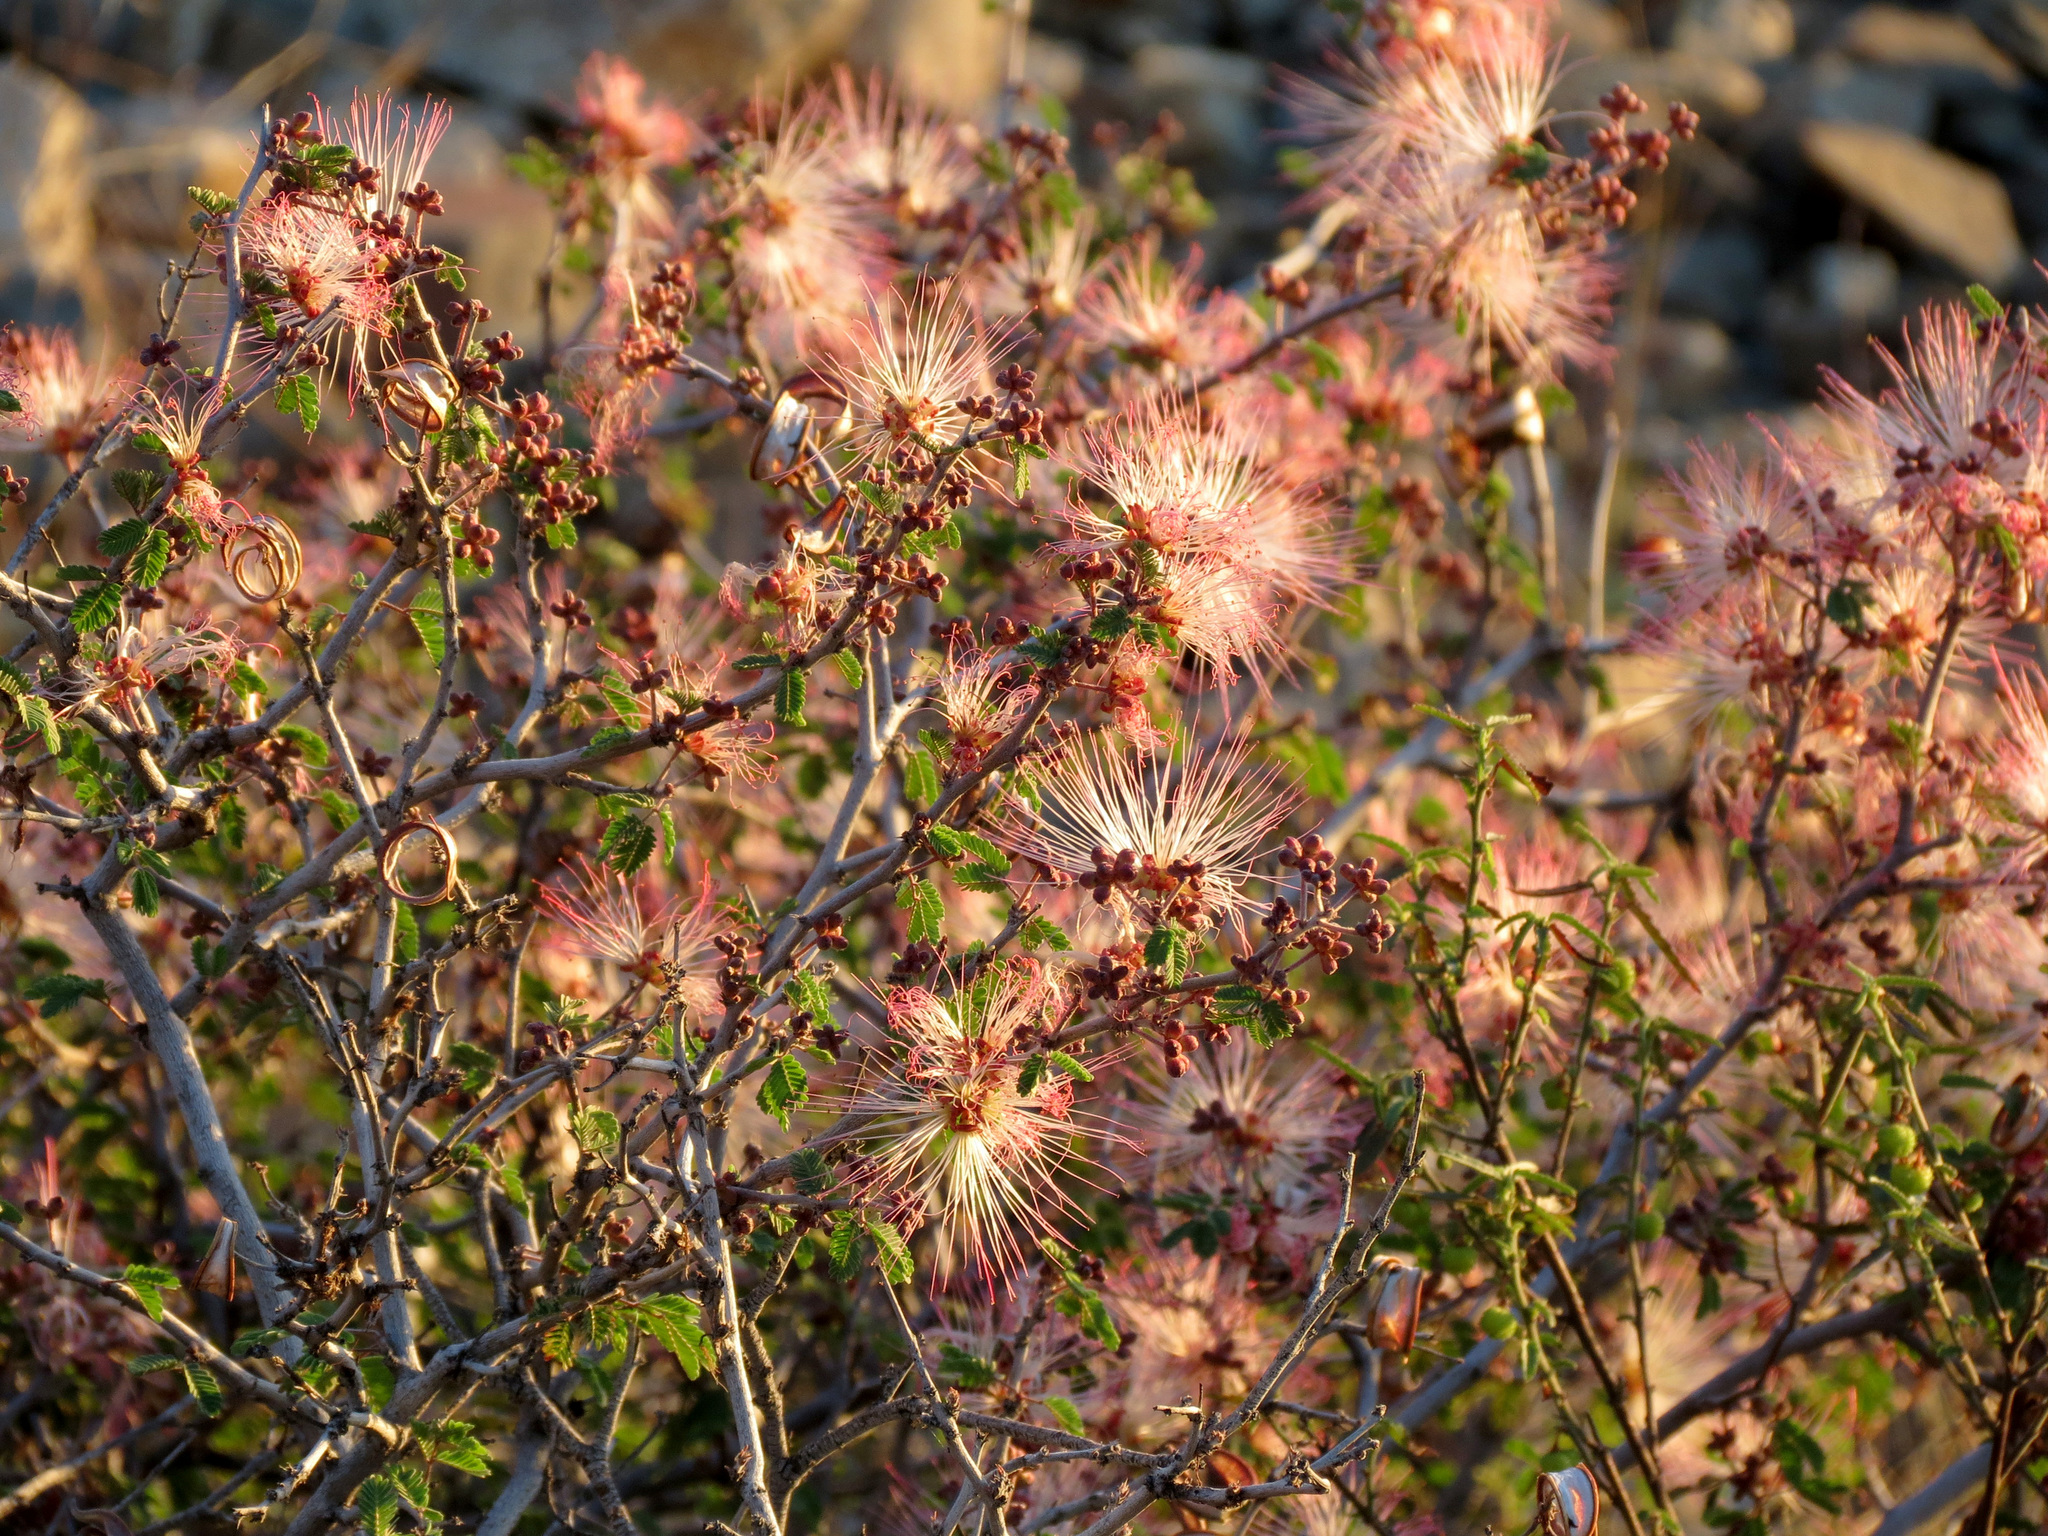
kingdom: Plantae
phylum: Tracheophyta
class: Magnoliopsida
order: Fabales
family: Fabaceae
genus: Calliandra
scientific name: Calliandra eriophylla
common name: Fairy-duster
